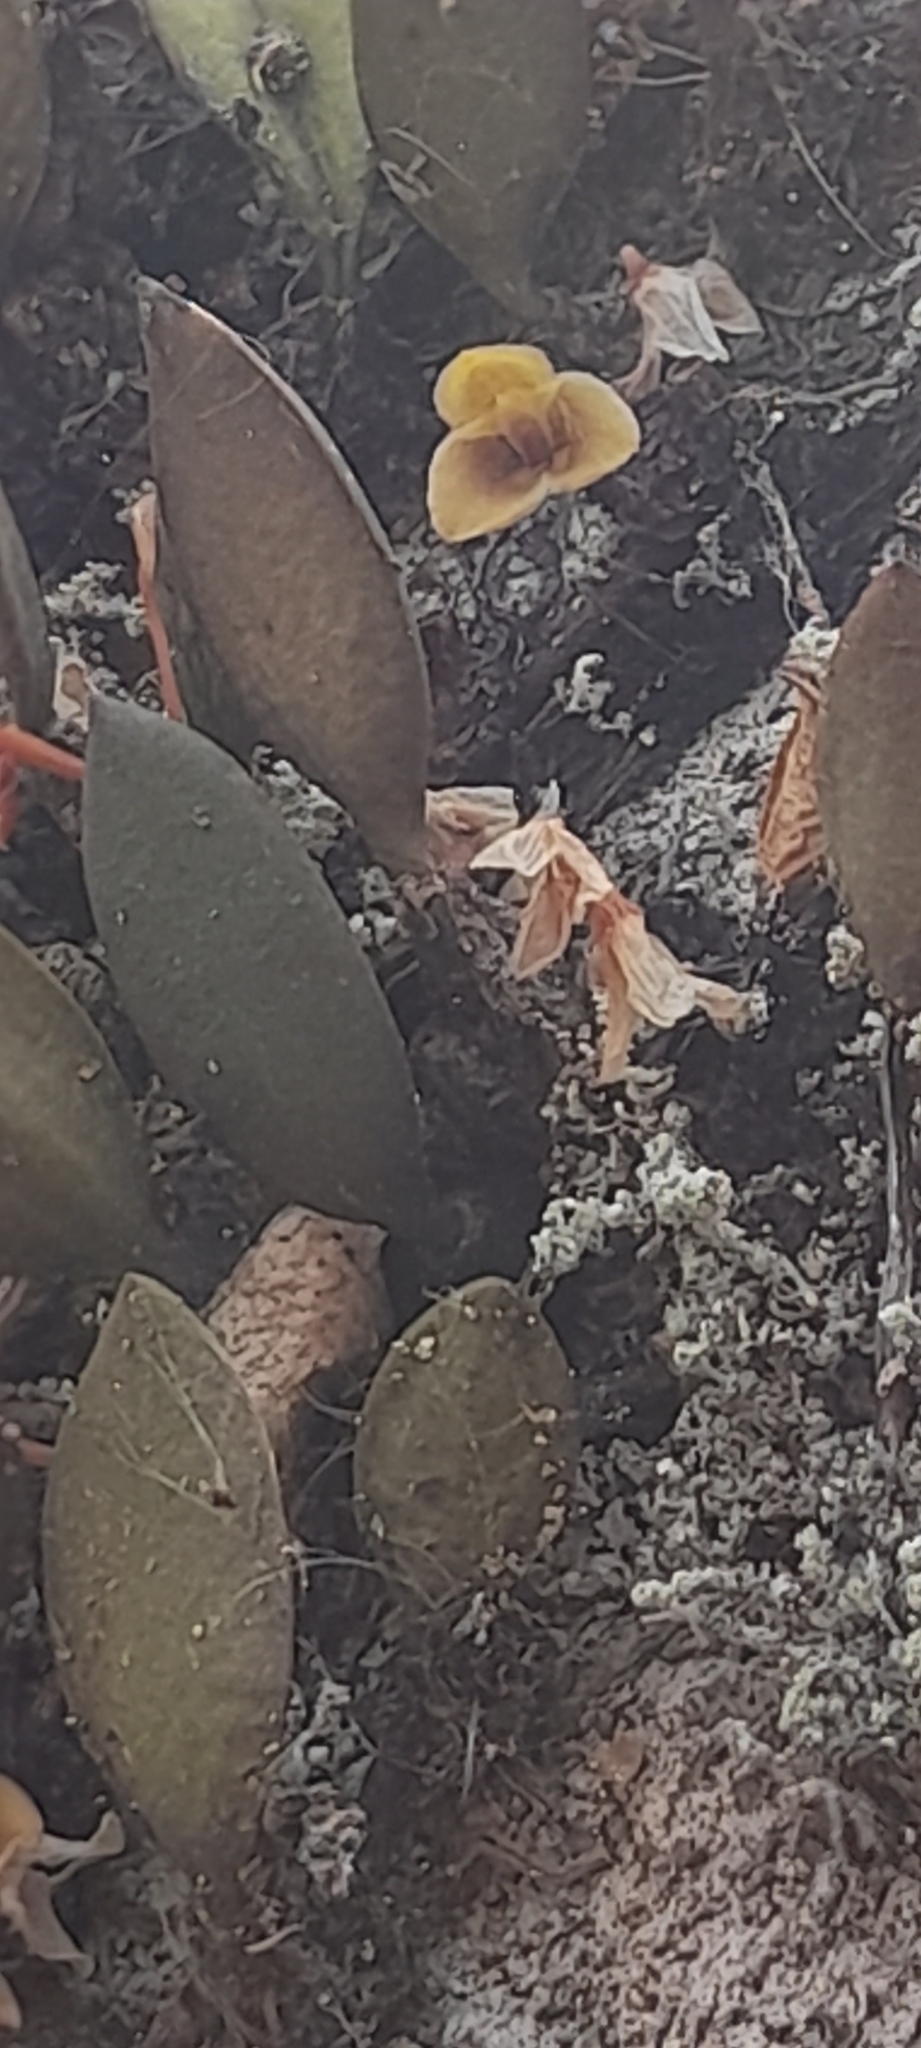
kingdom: Plantae
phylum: Tracheophyta
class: Liliopsida
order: Asparagales
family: Orchidaceae
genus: Bulbophyllum
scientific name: Bulbophyllum stocksii
